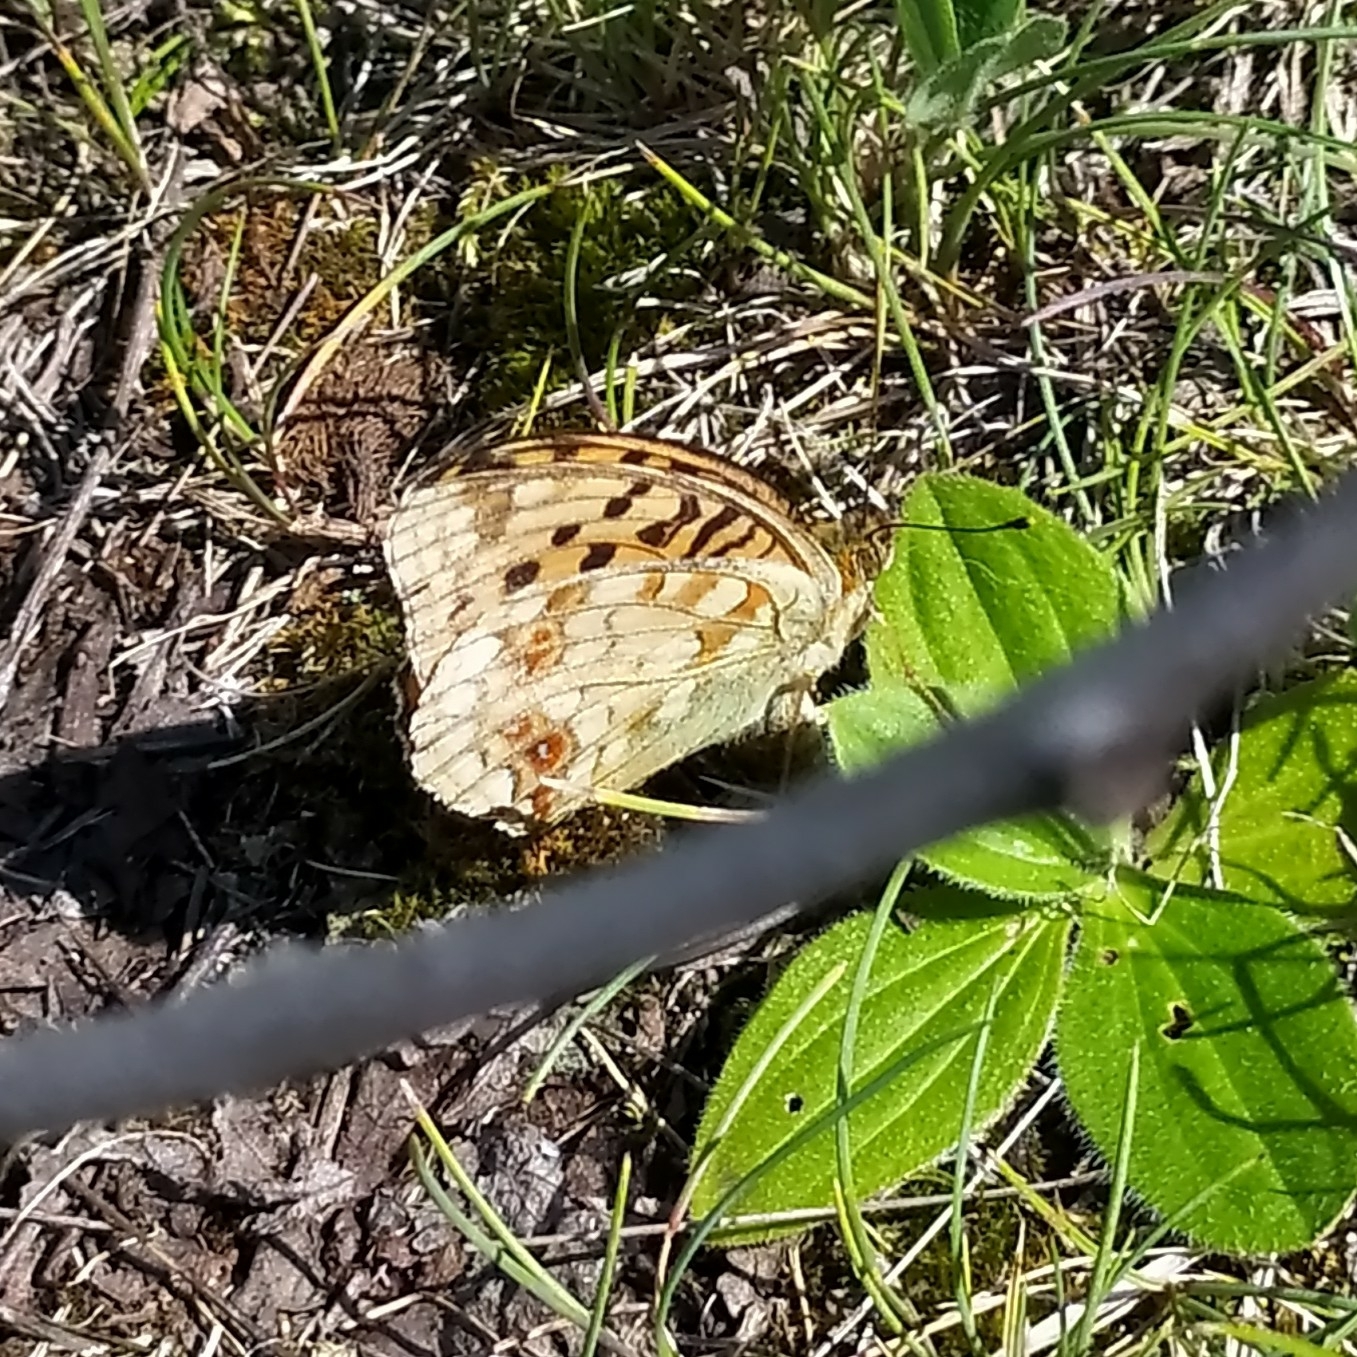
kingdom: Animalia
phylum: Arthropoda
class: Insecta
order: Lepidoptera
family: Nymphalidae
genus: Fabriciana
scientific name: Fabriciana adippe
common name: High brown fritillary
